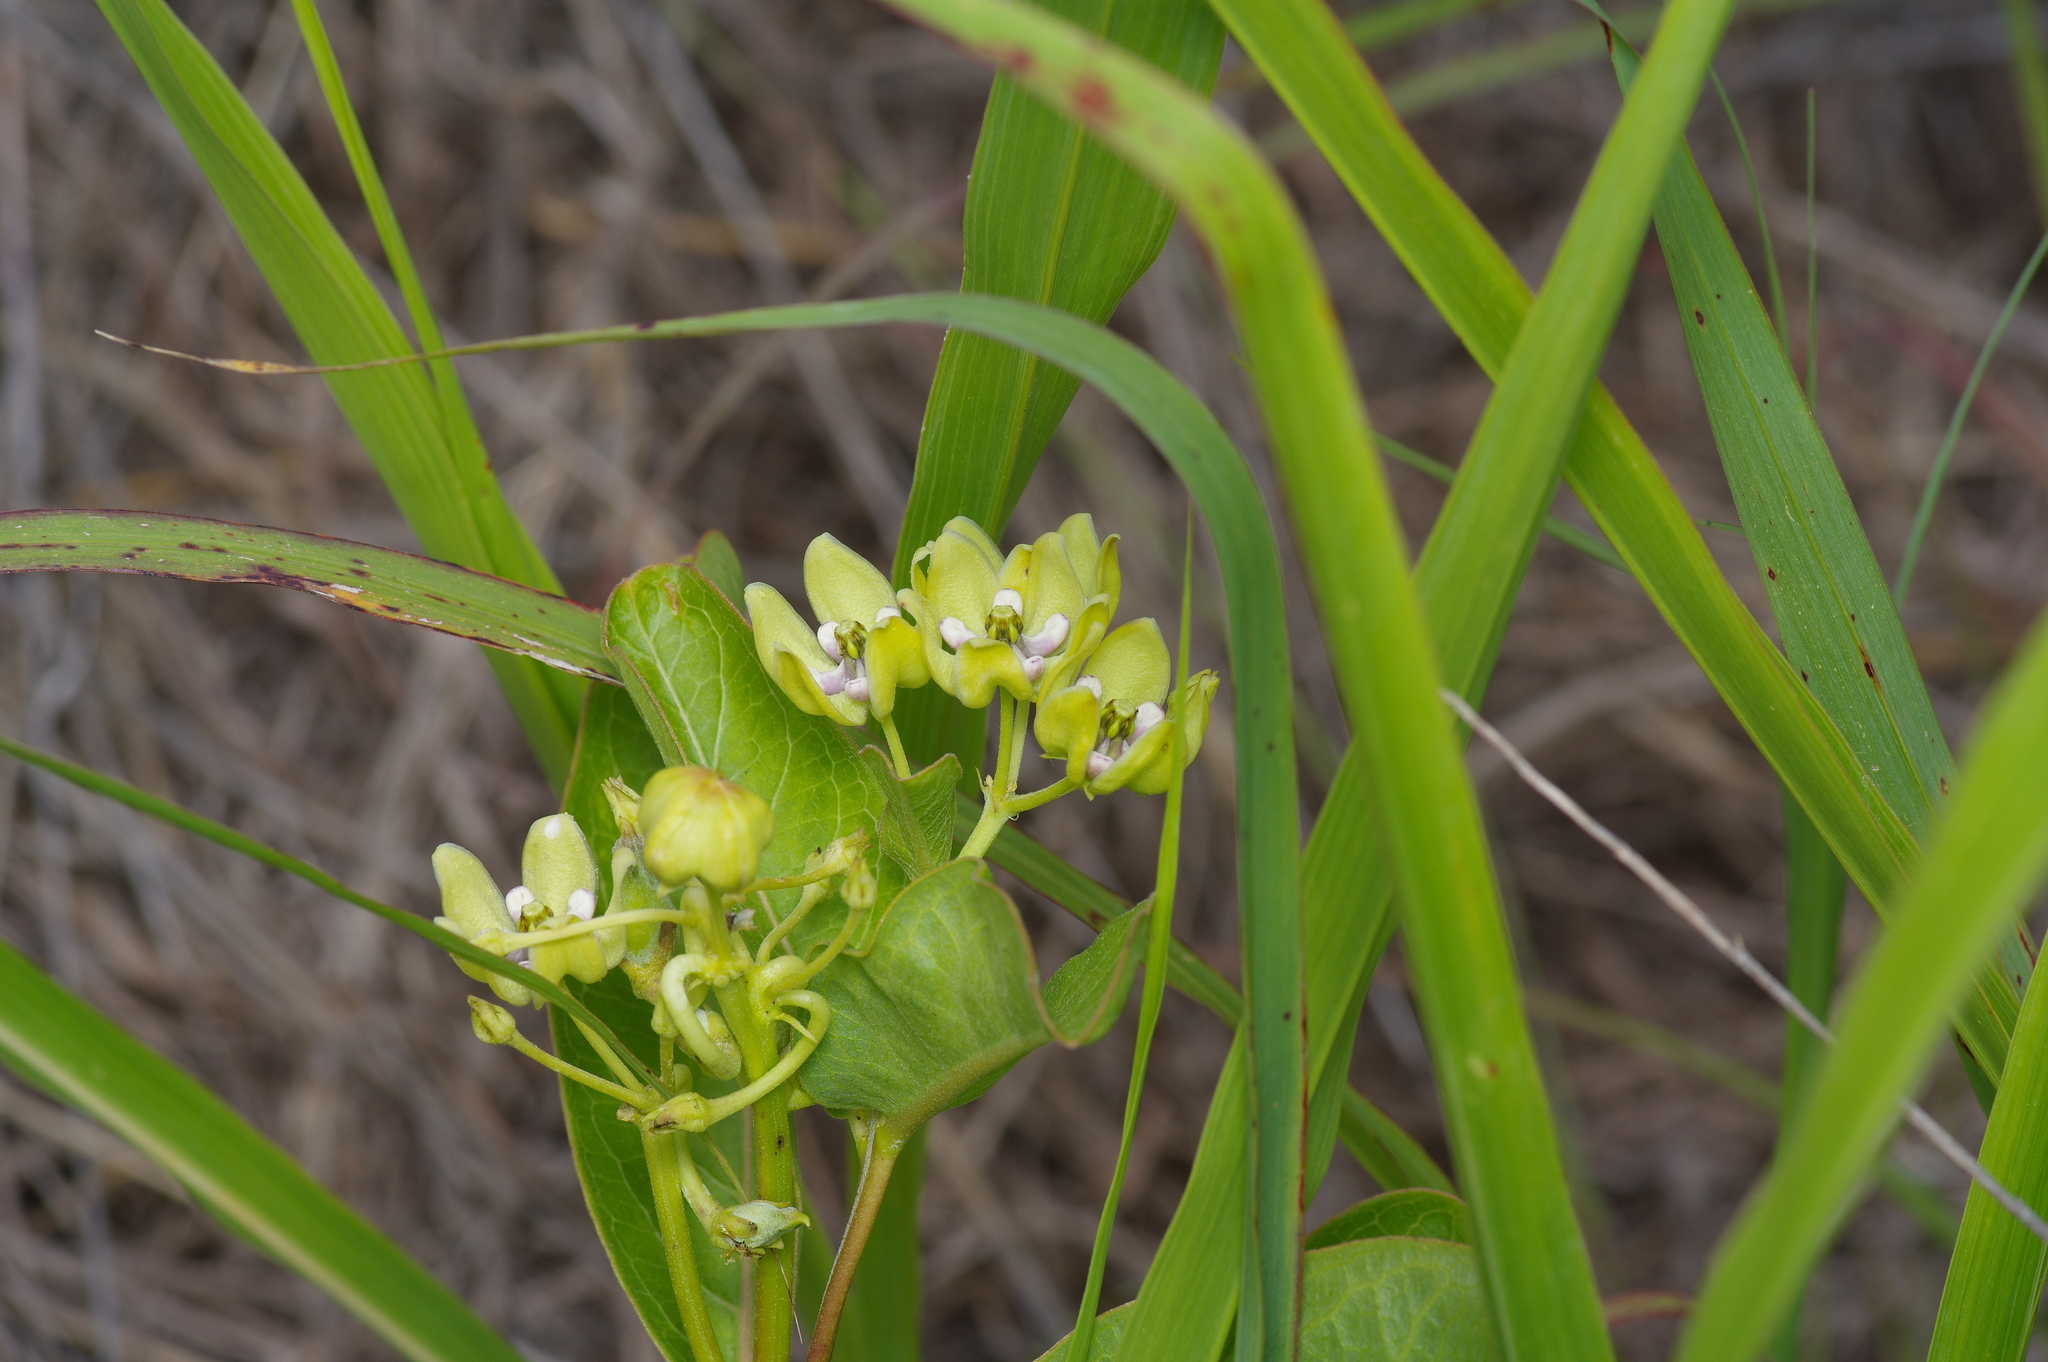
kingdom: Plantae
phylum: Tracheophyta
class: Magnoliopsida
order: Gentianales
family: Apocynaceae
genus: Asclepias
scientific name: Asclepias viridis
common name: Antelope-horns
